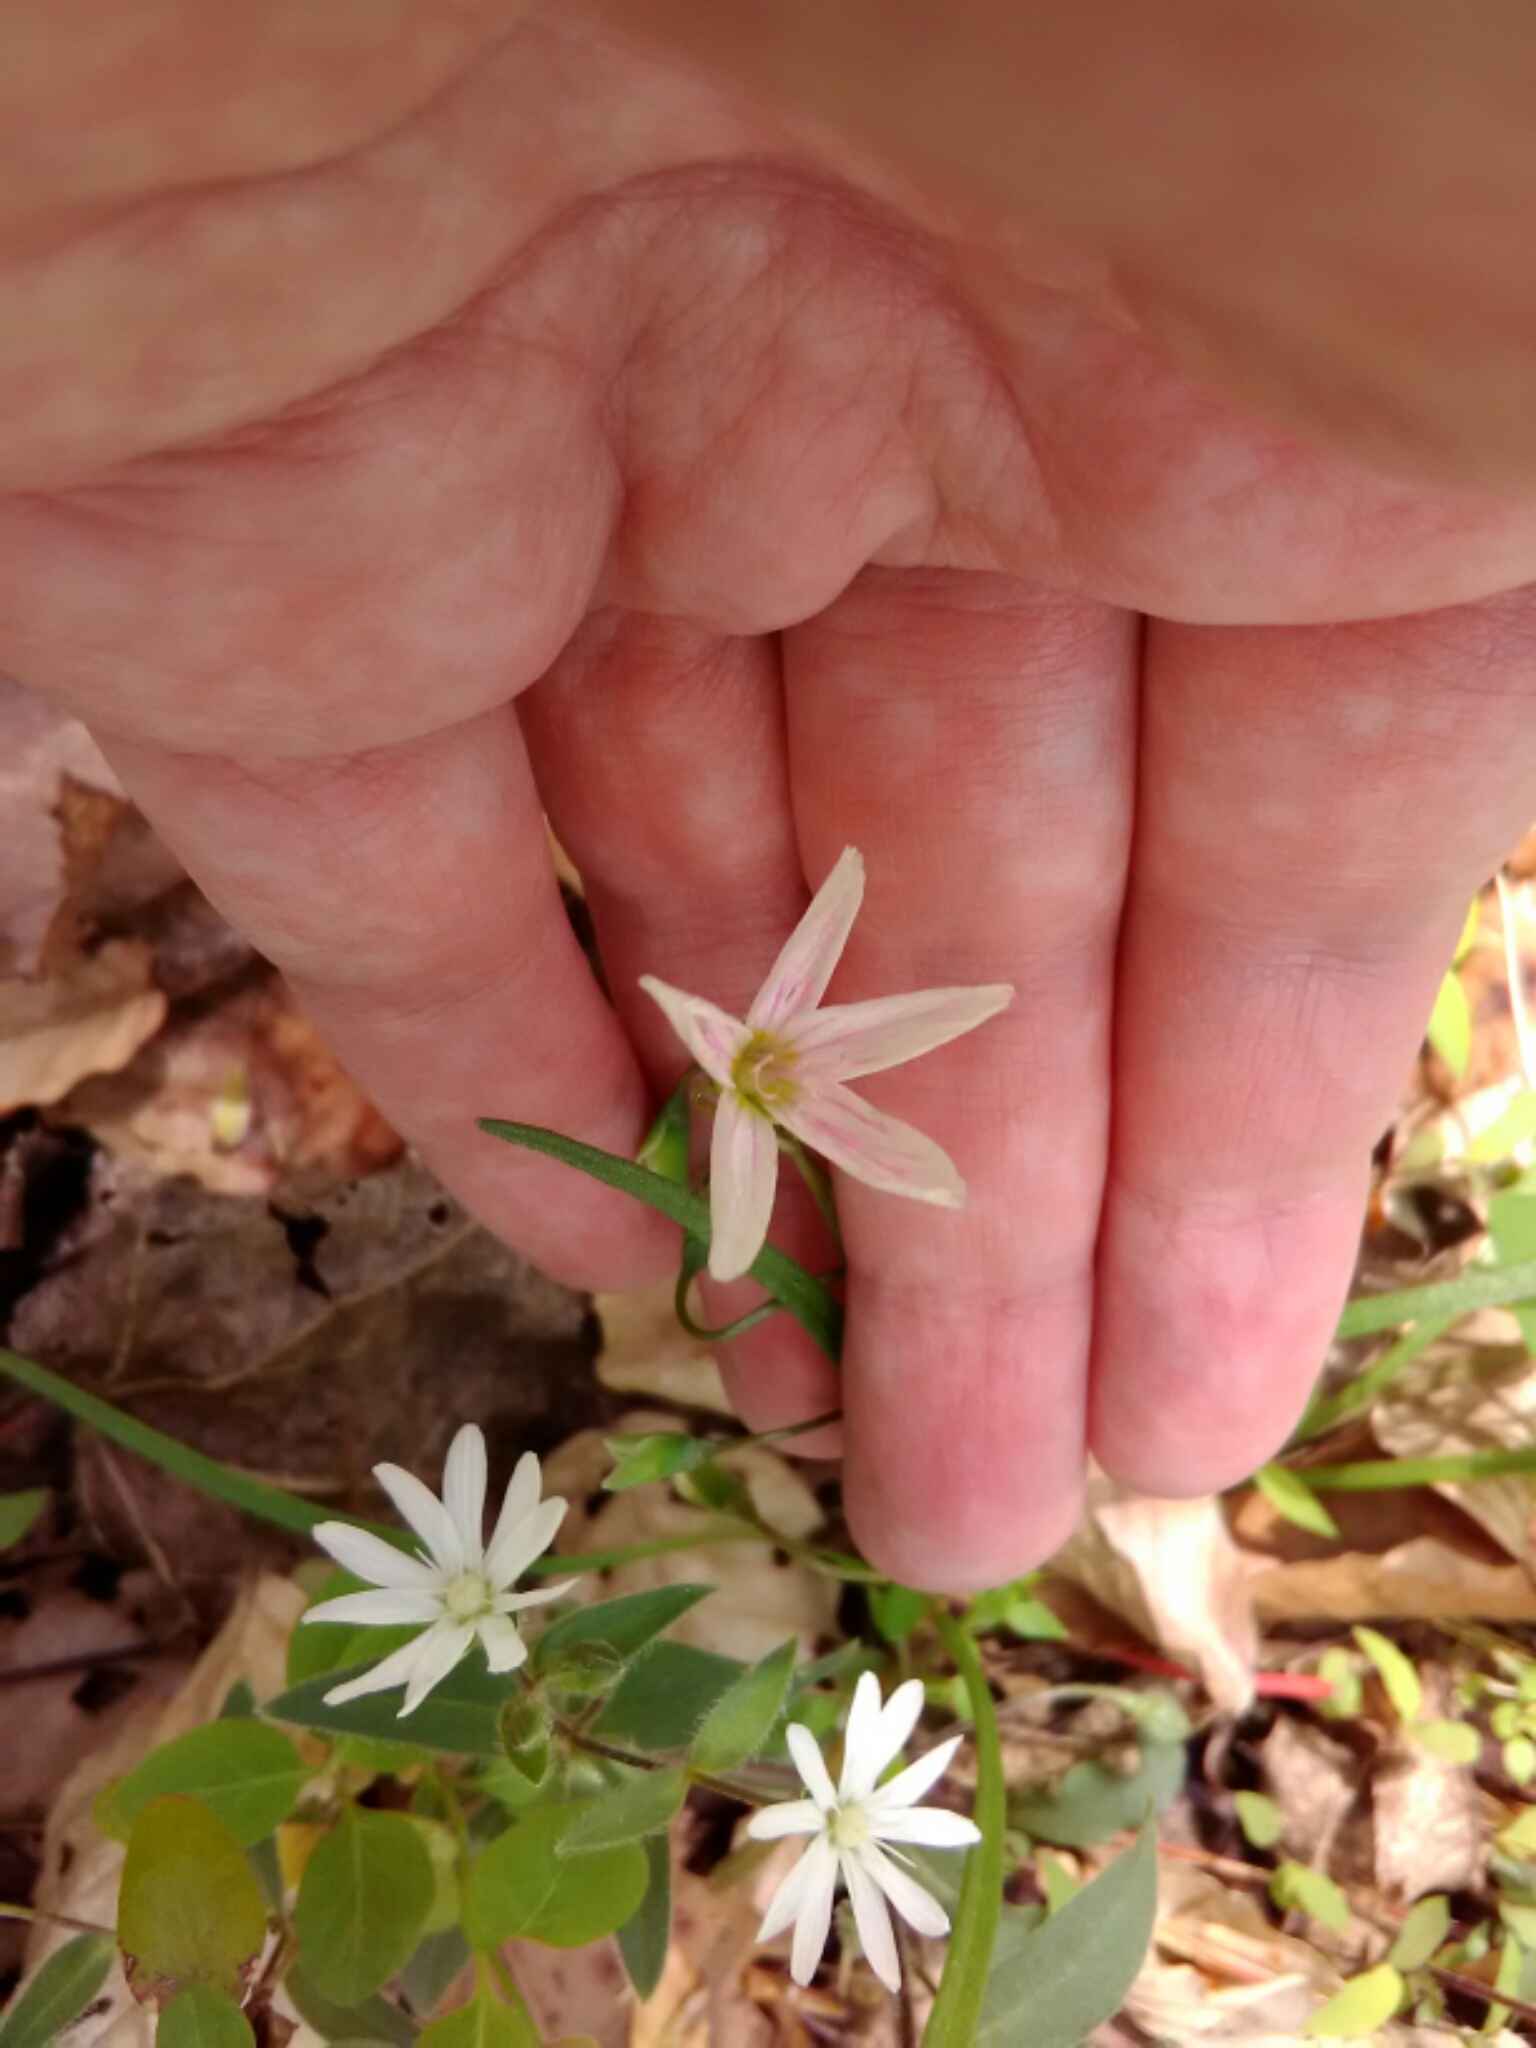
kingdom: Plantae
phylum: Tracheophyta
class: Magnoliopsida
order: Caryophyllales
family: Montiaceae
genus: Claytonia
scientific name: Claytonia virginica
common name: Virginia springbeauty
